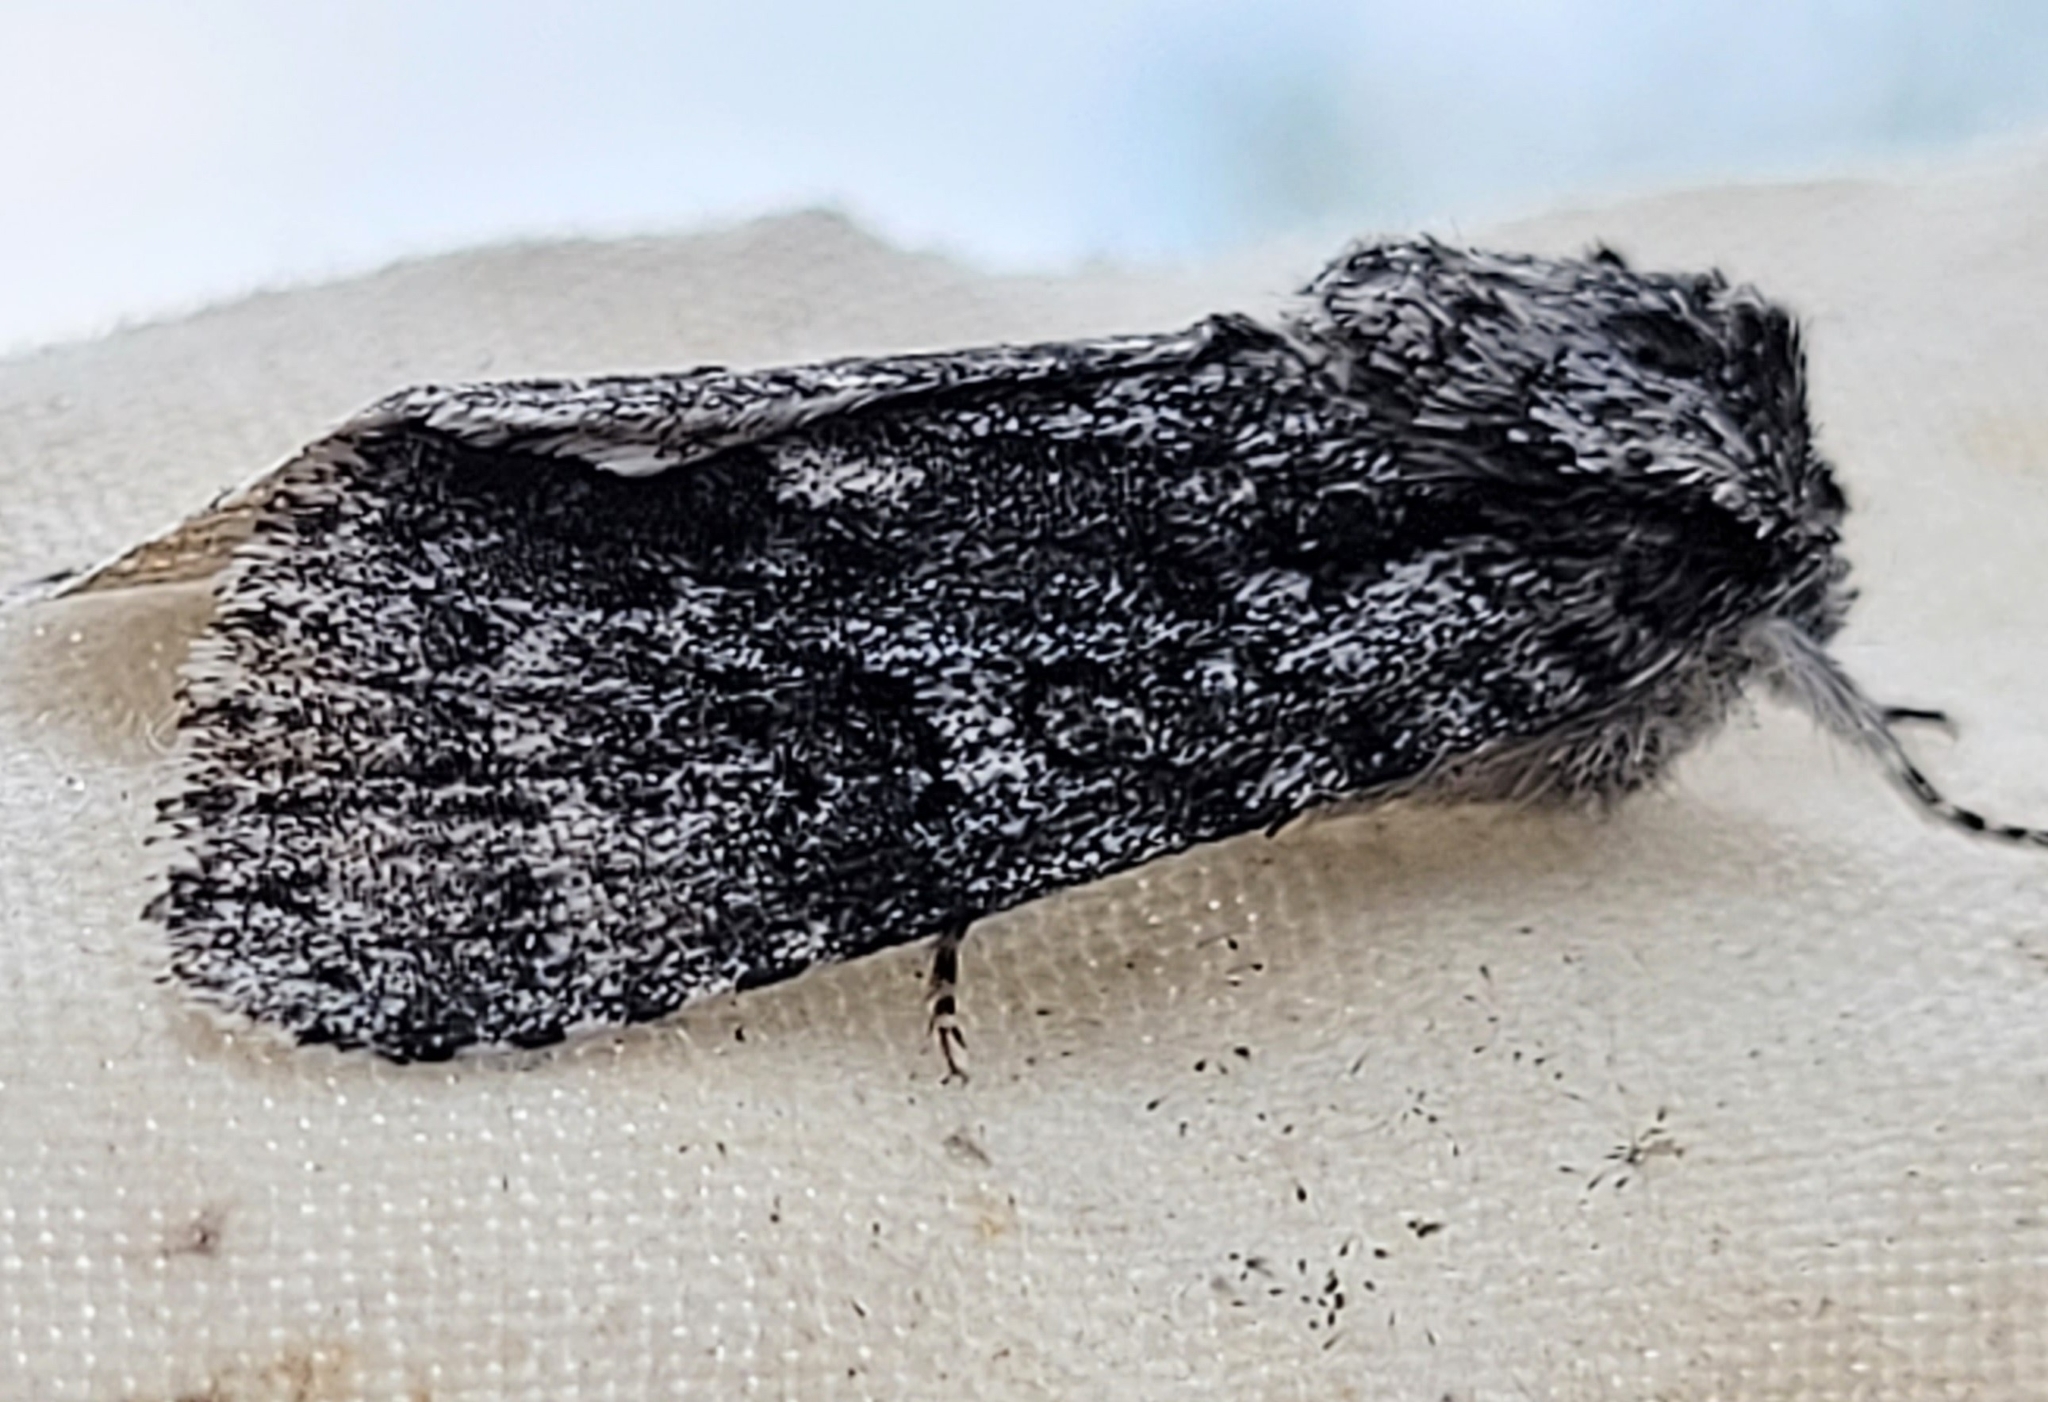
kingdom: Animalia
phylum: Arthropoda
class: Insecta
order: Lepidoptera
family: Noctuidae
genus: Acronicta
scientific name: Acronicta impressa
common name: Impressed dagger
